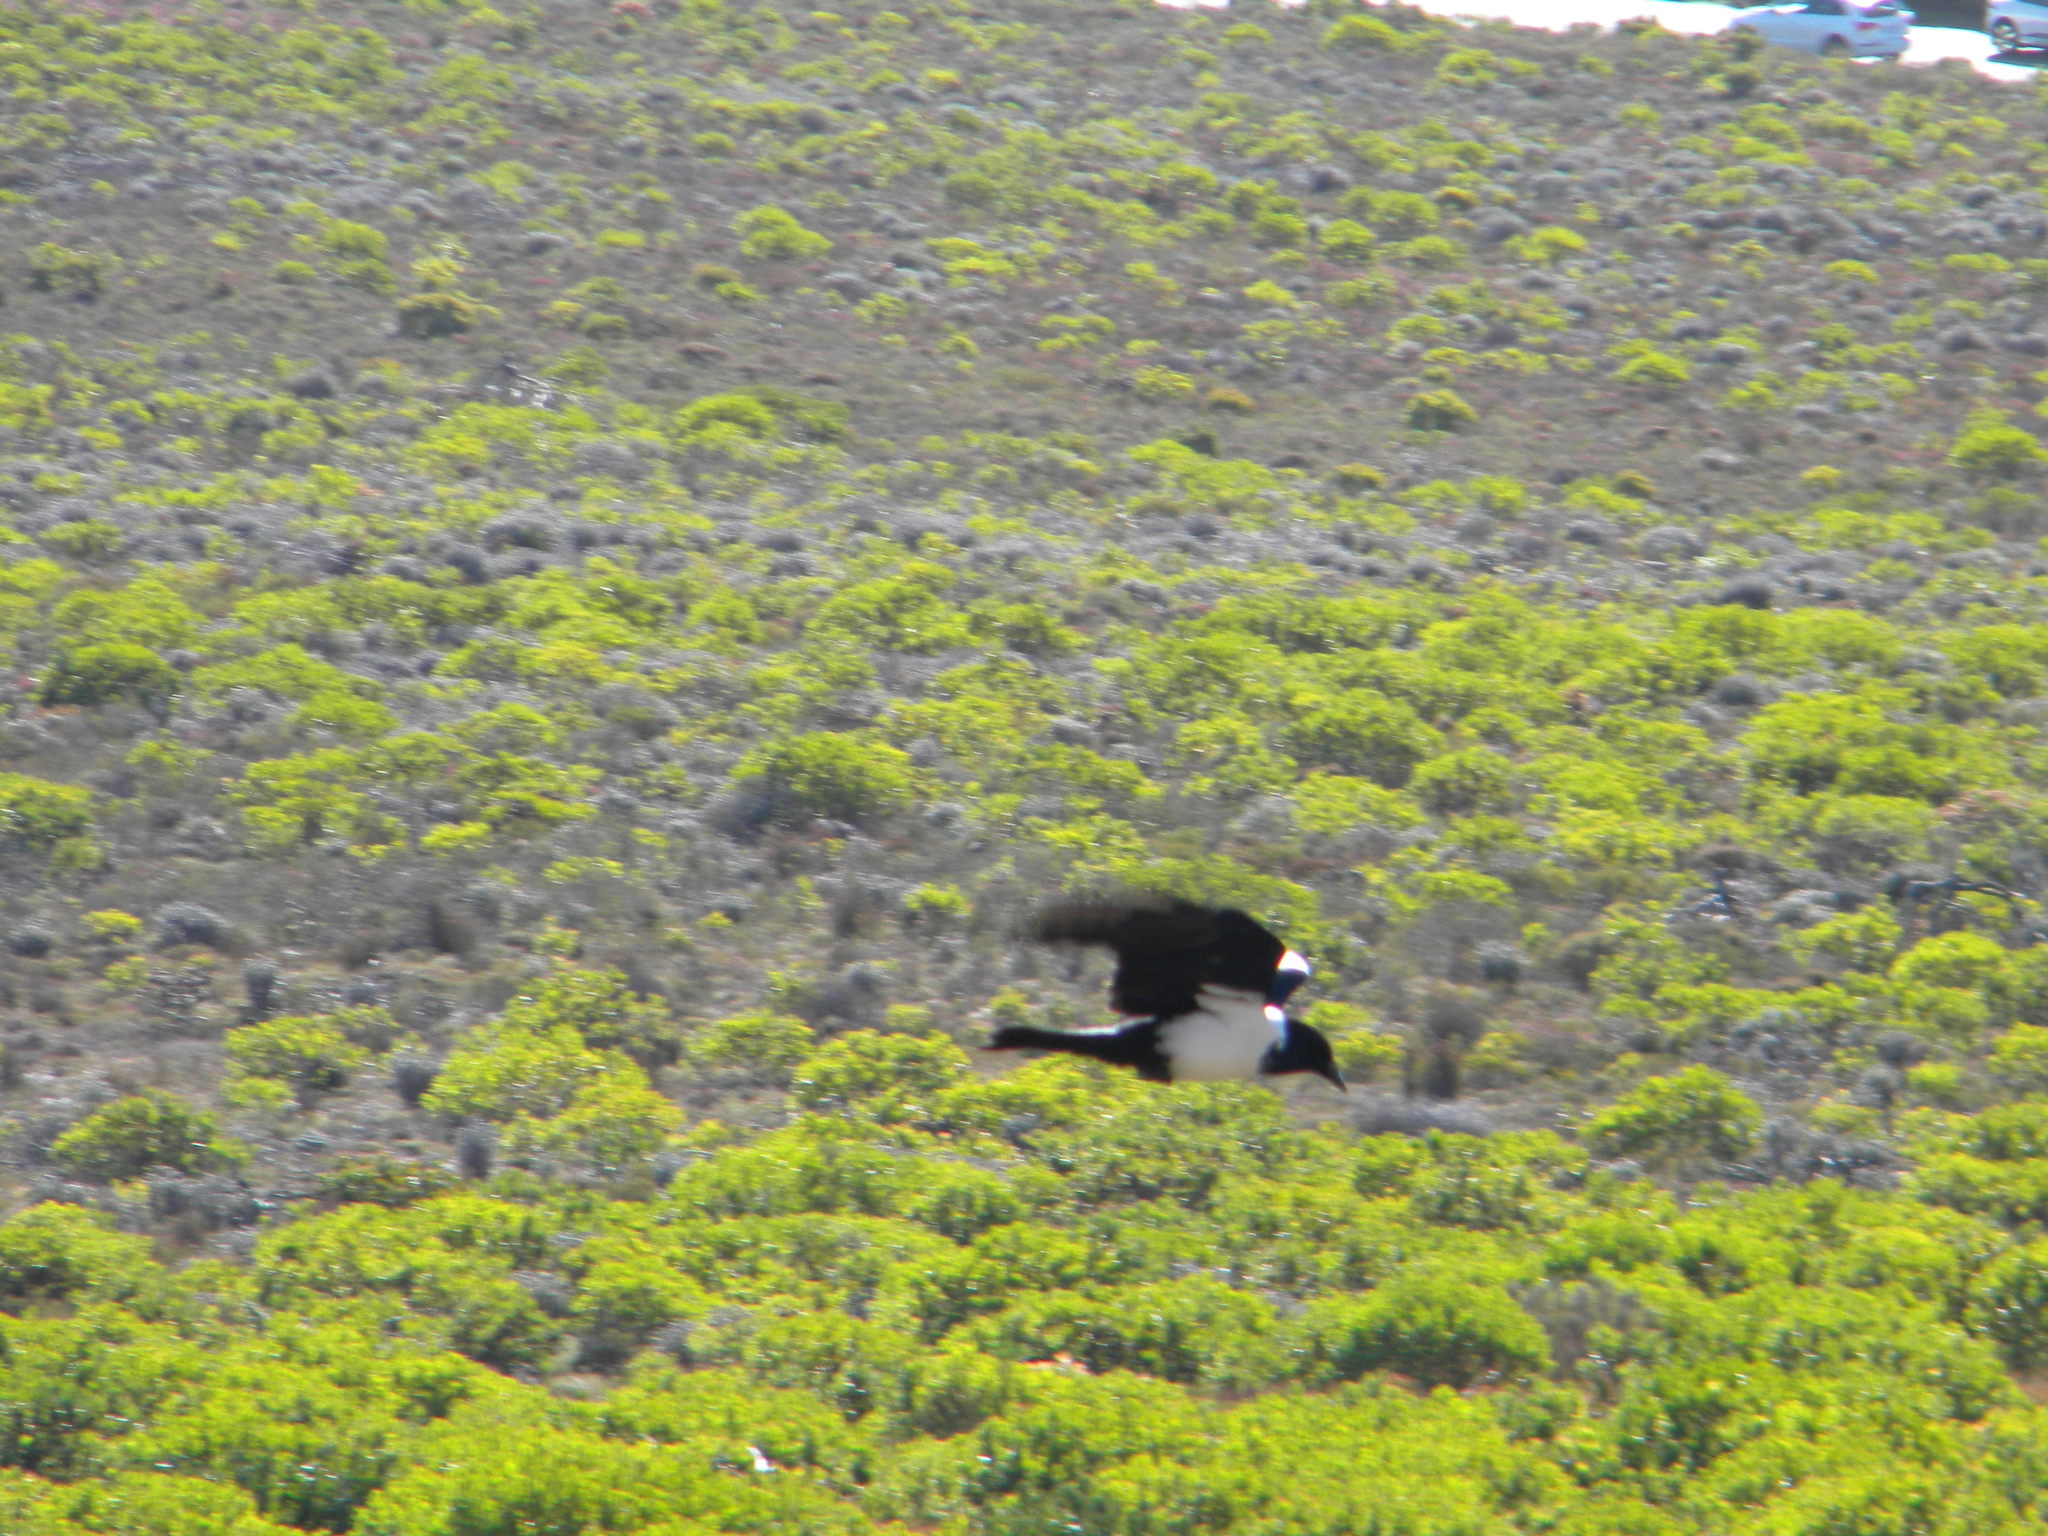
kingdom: Animalia
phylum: Chordata
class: Aves
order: Passeriformes
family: Corvidae
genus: Corvus
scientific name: Corvus albus
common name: Pied crow
